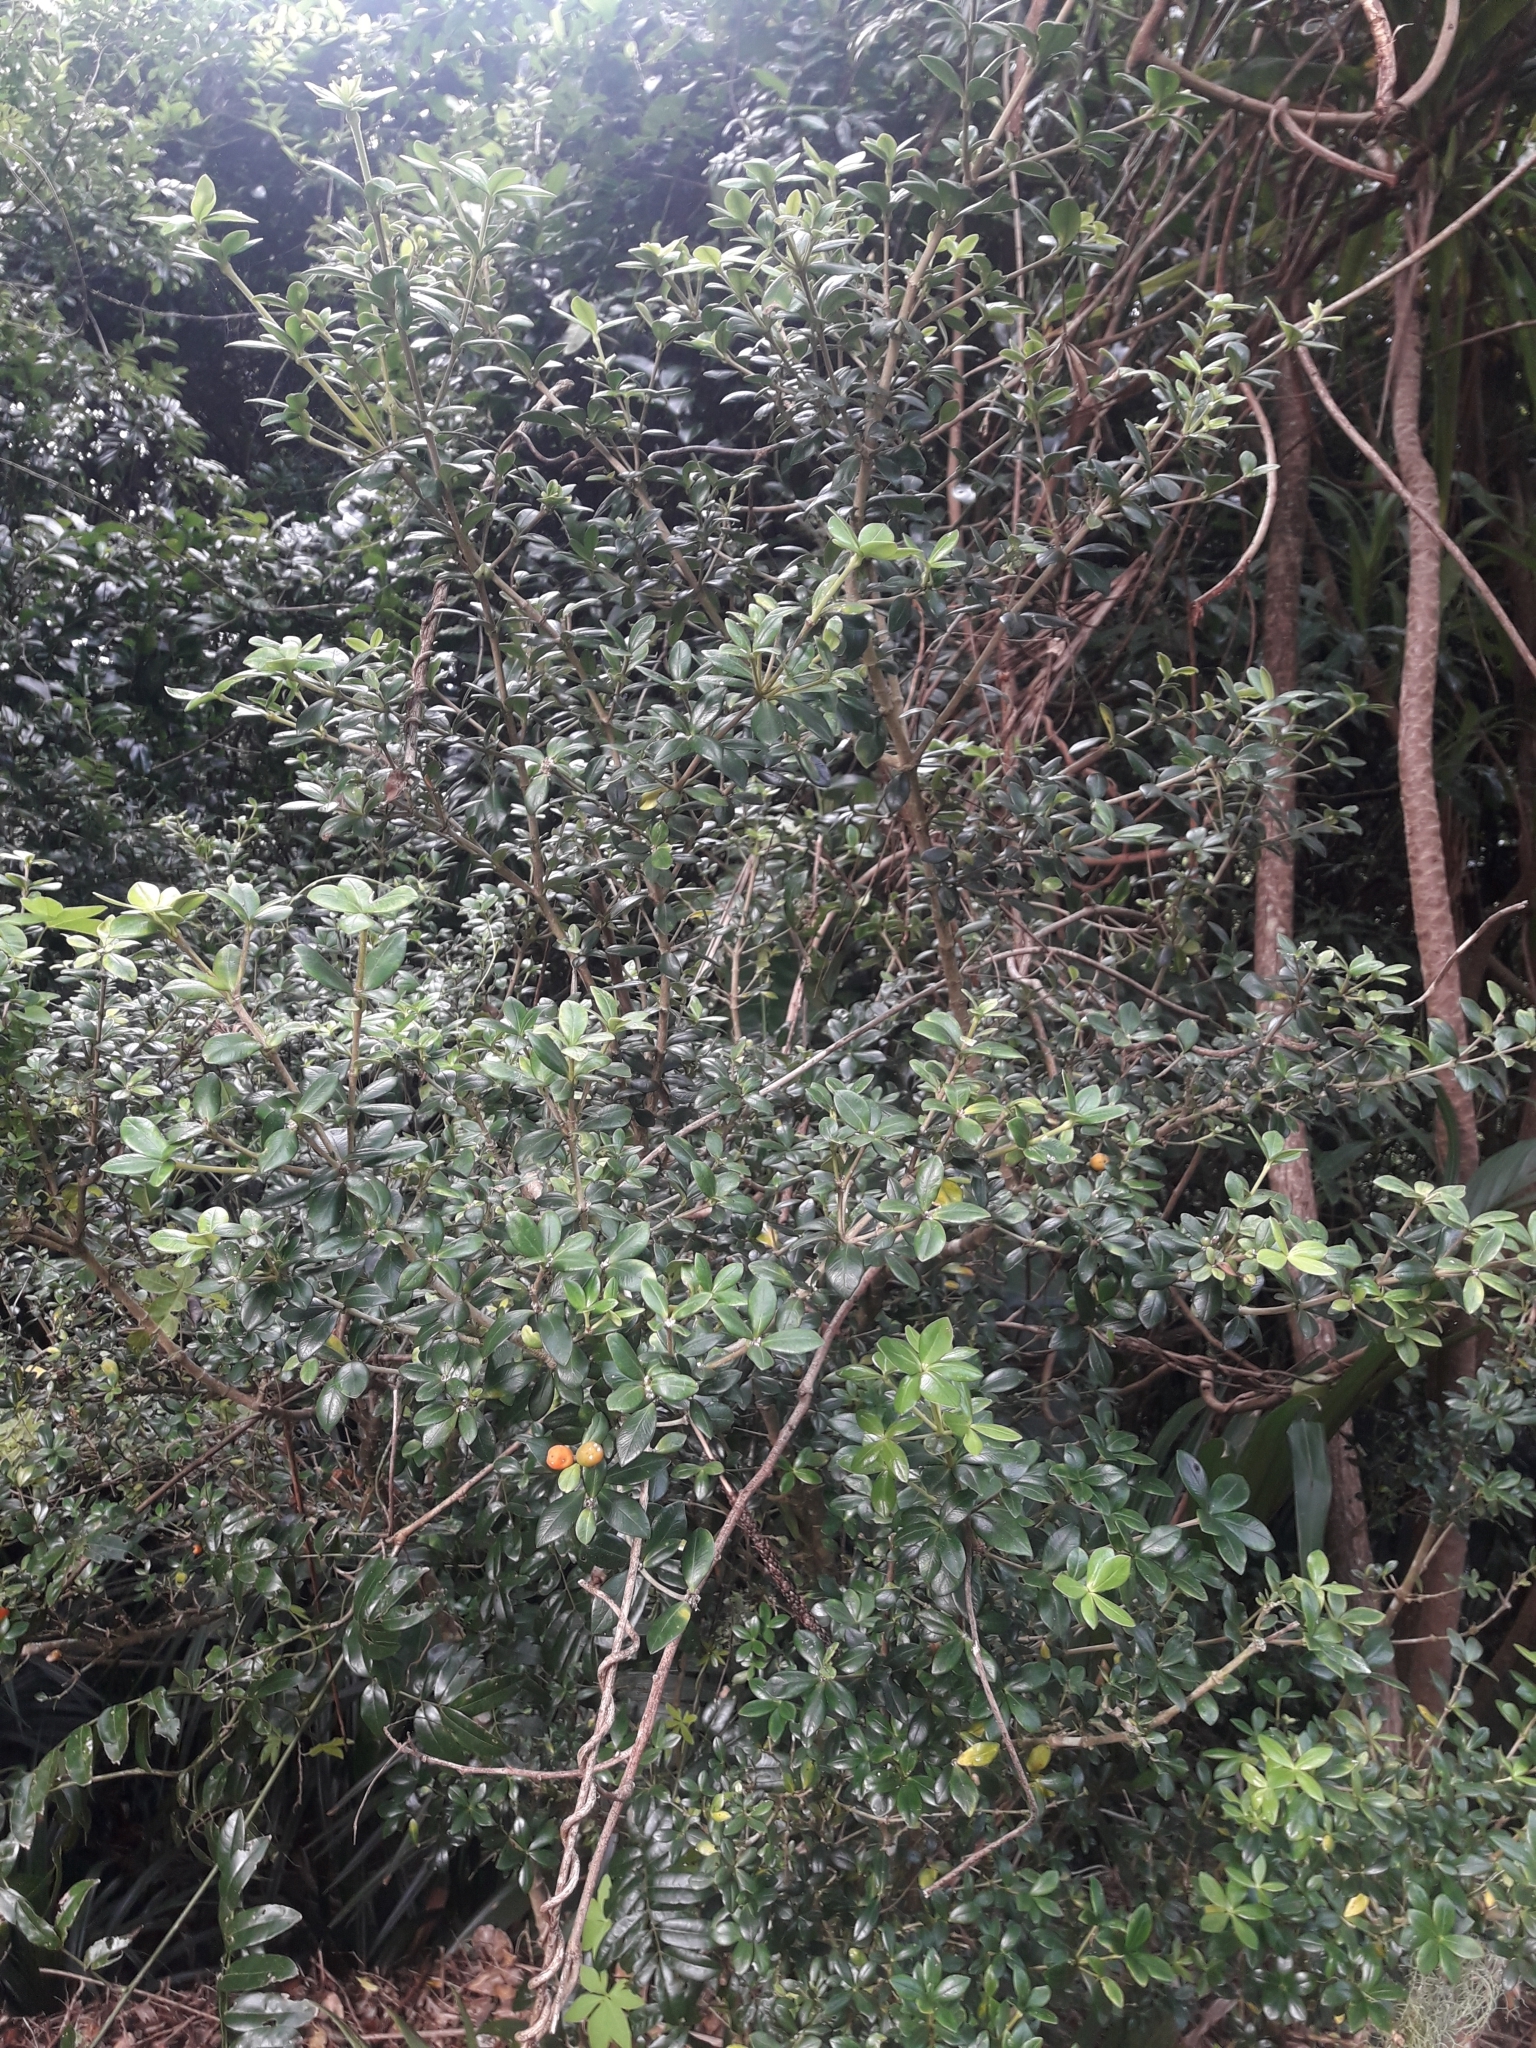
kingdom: Plantae
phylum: Tracheophyta
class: Magnoliopsida
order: Gentianales
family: Apocynaceae
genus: Alyxia
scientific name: Alyxia gynopogon
